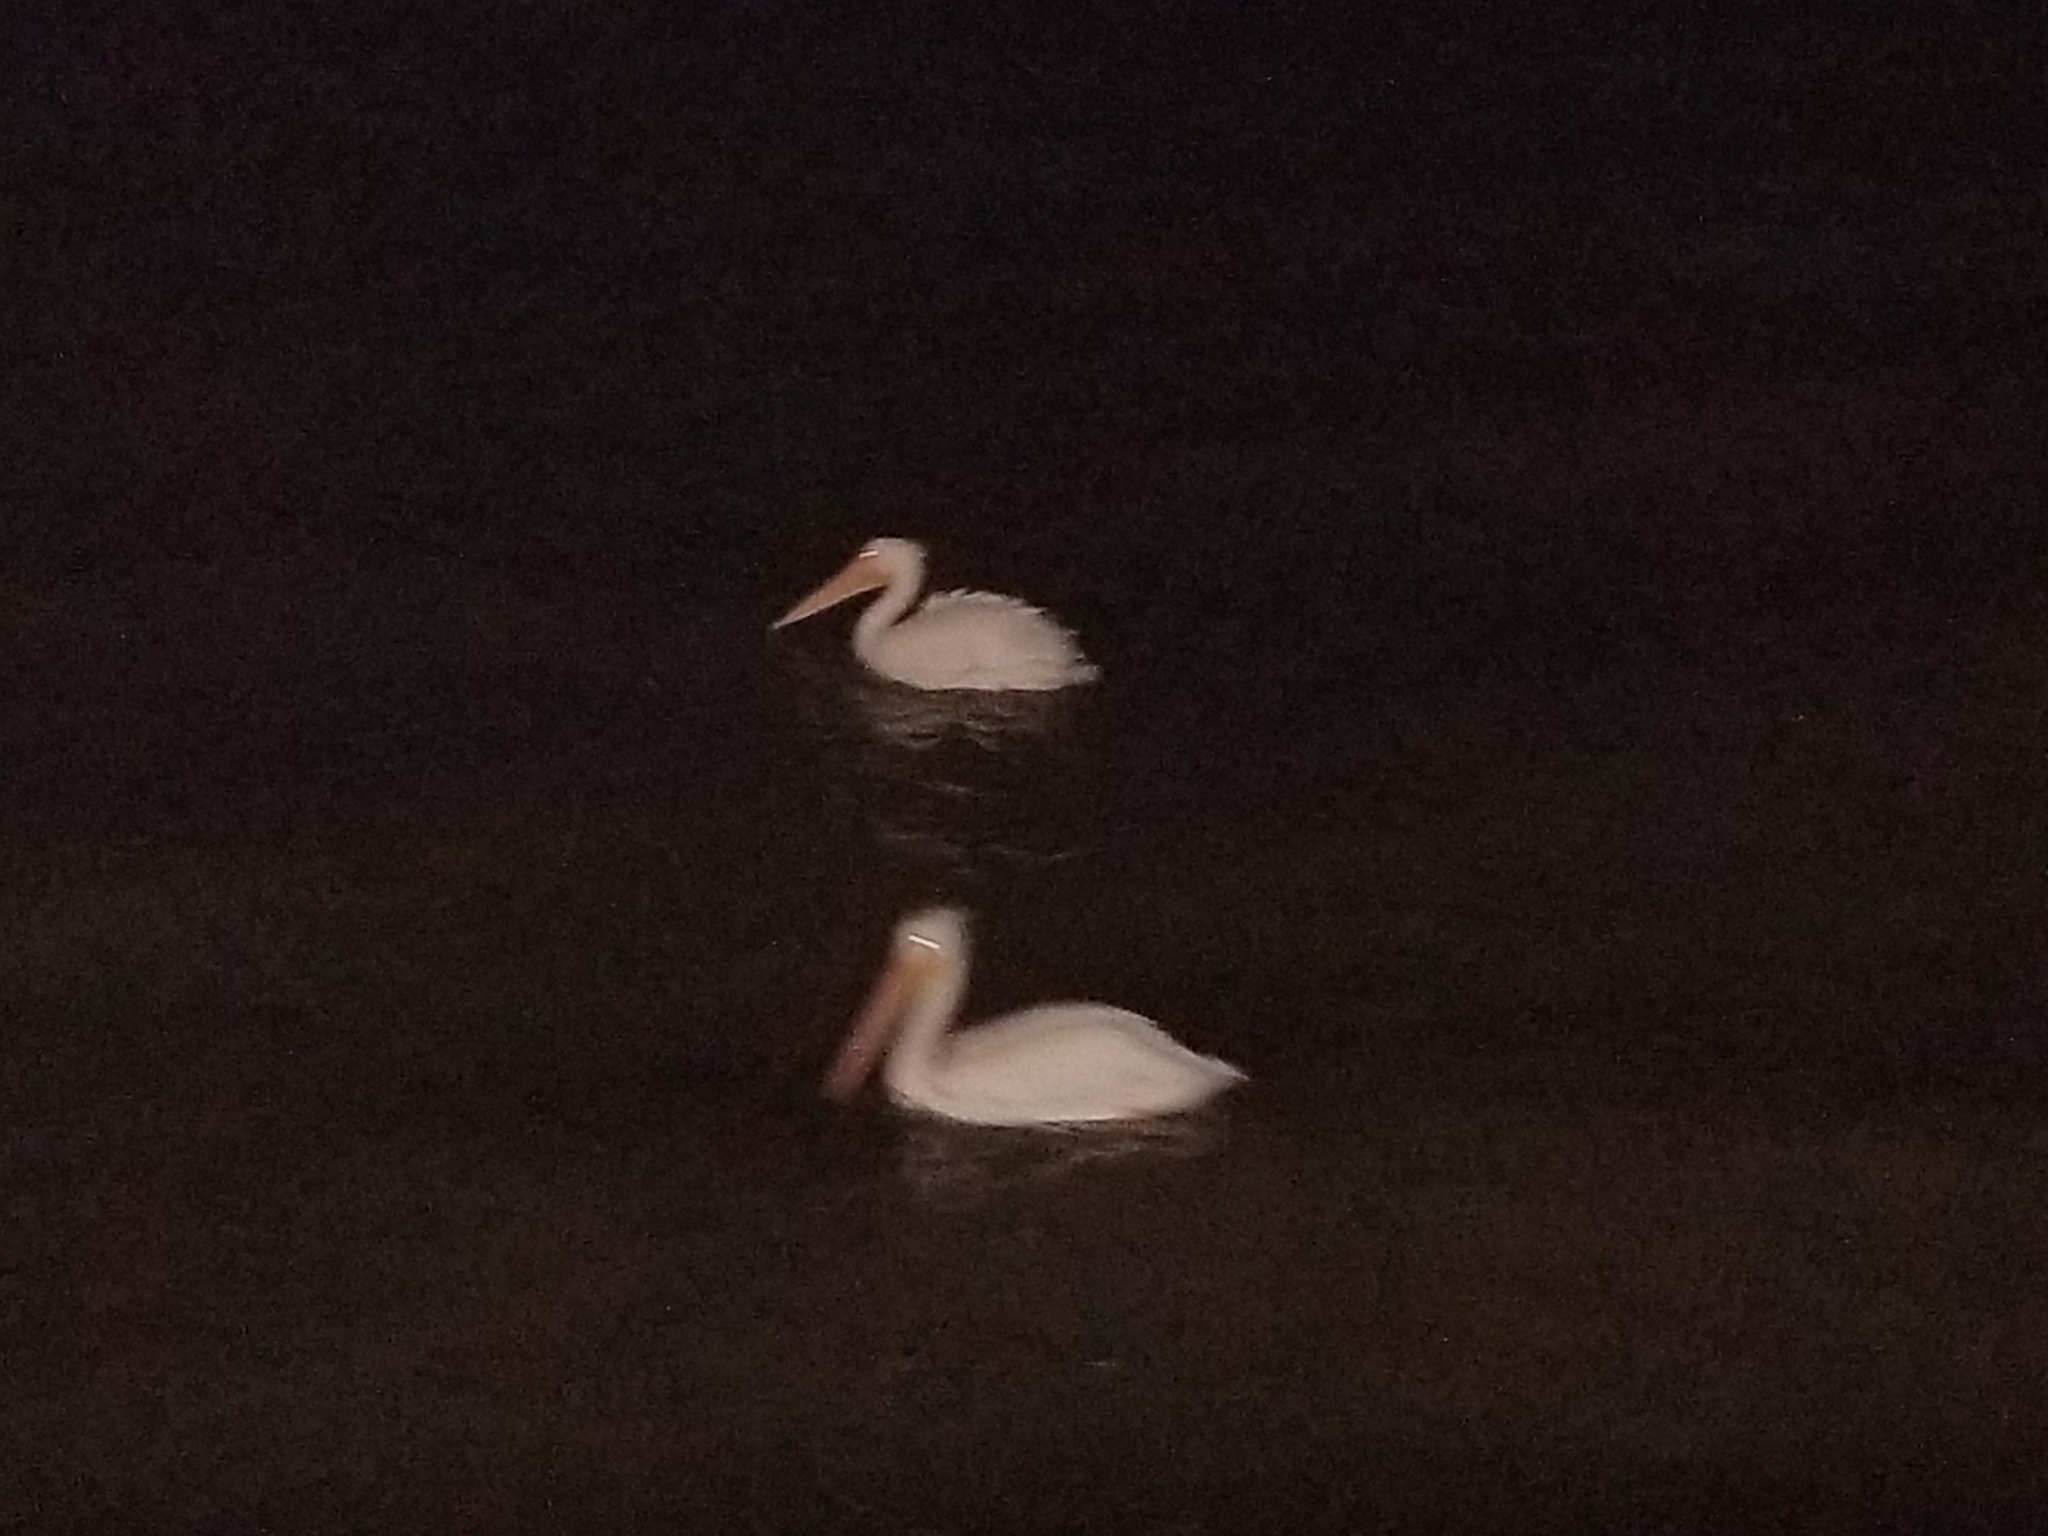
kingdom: Animalia
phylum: Chordata
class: Aves
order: Pelecaniformes
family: Pelecanidae
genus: Pelecanus
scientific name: Pelecanus erythrorhynchos
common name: American white pelican
